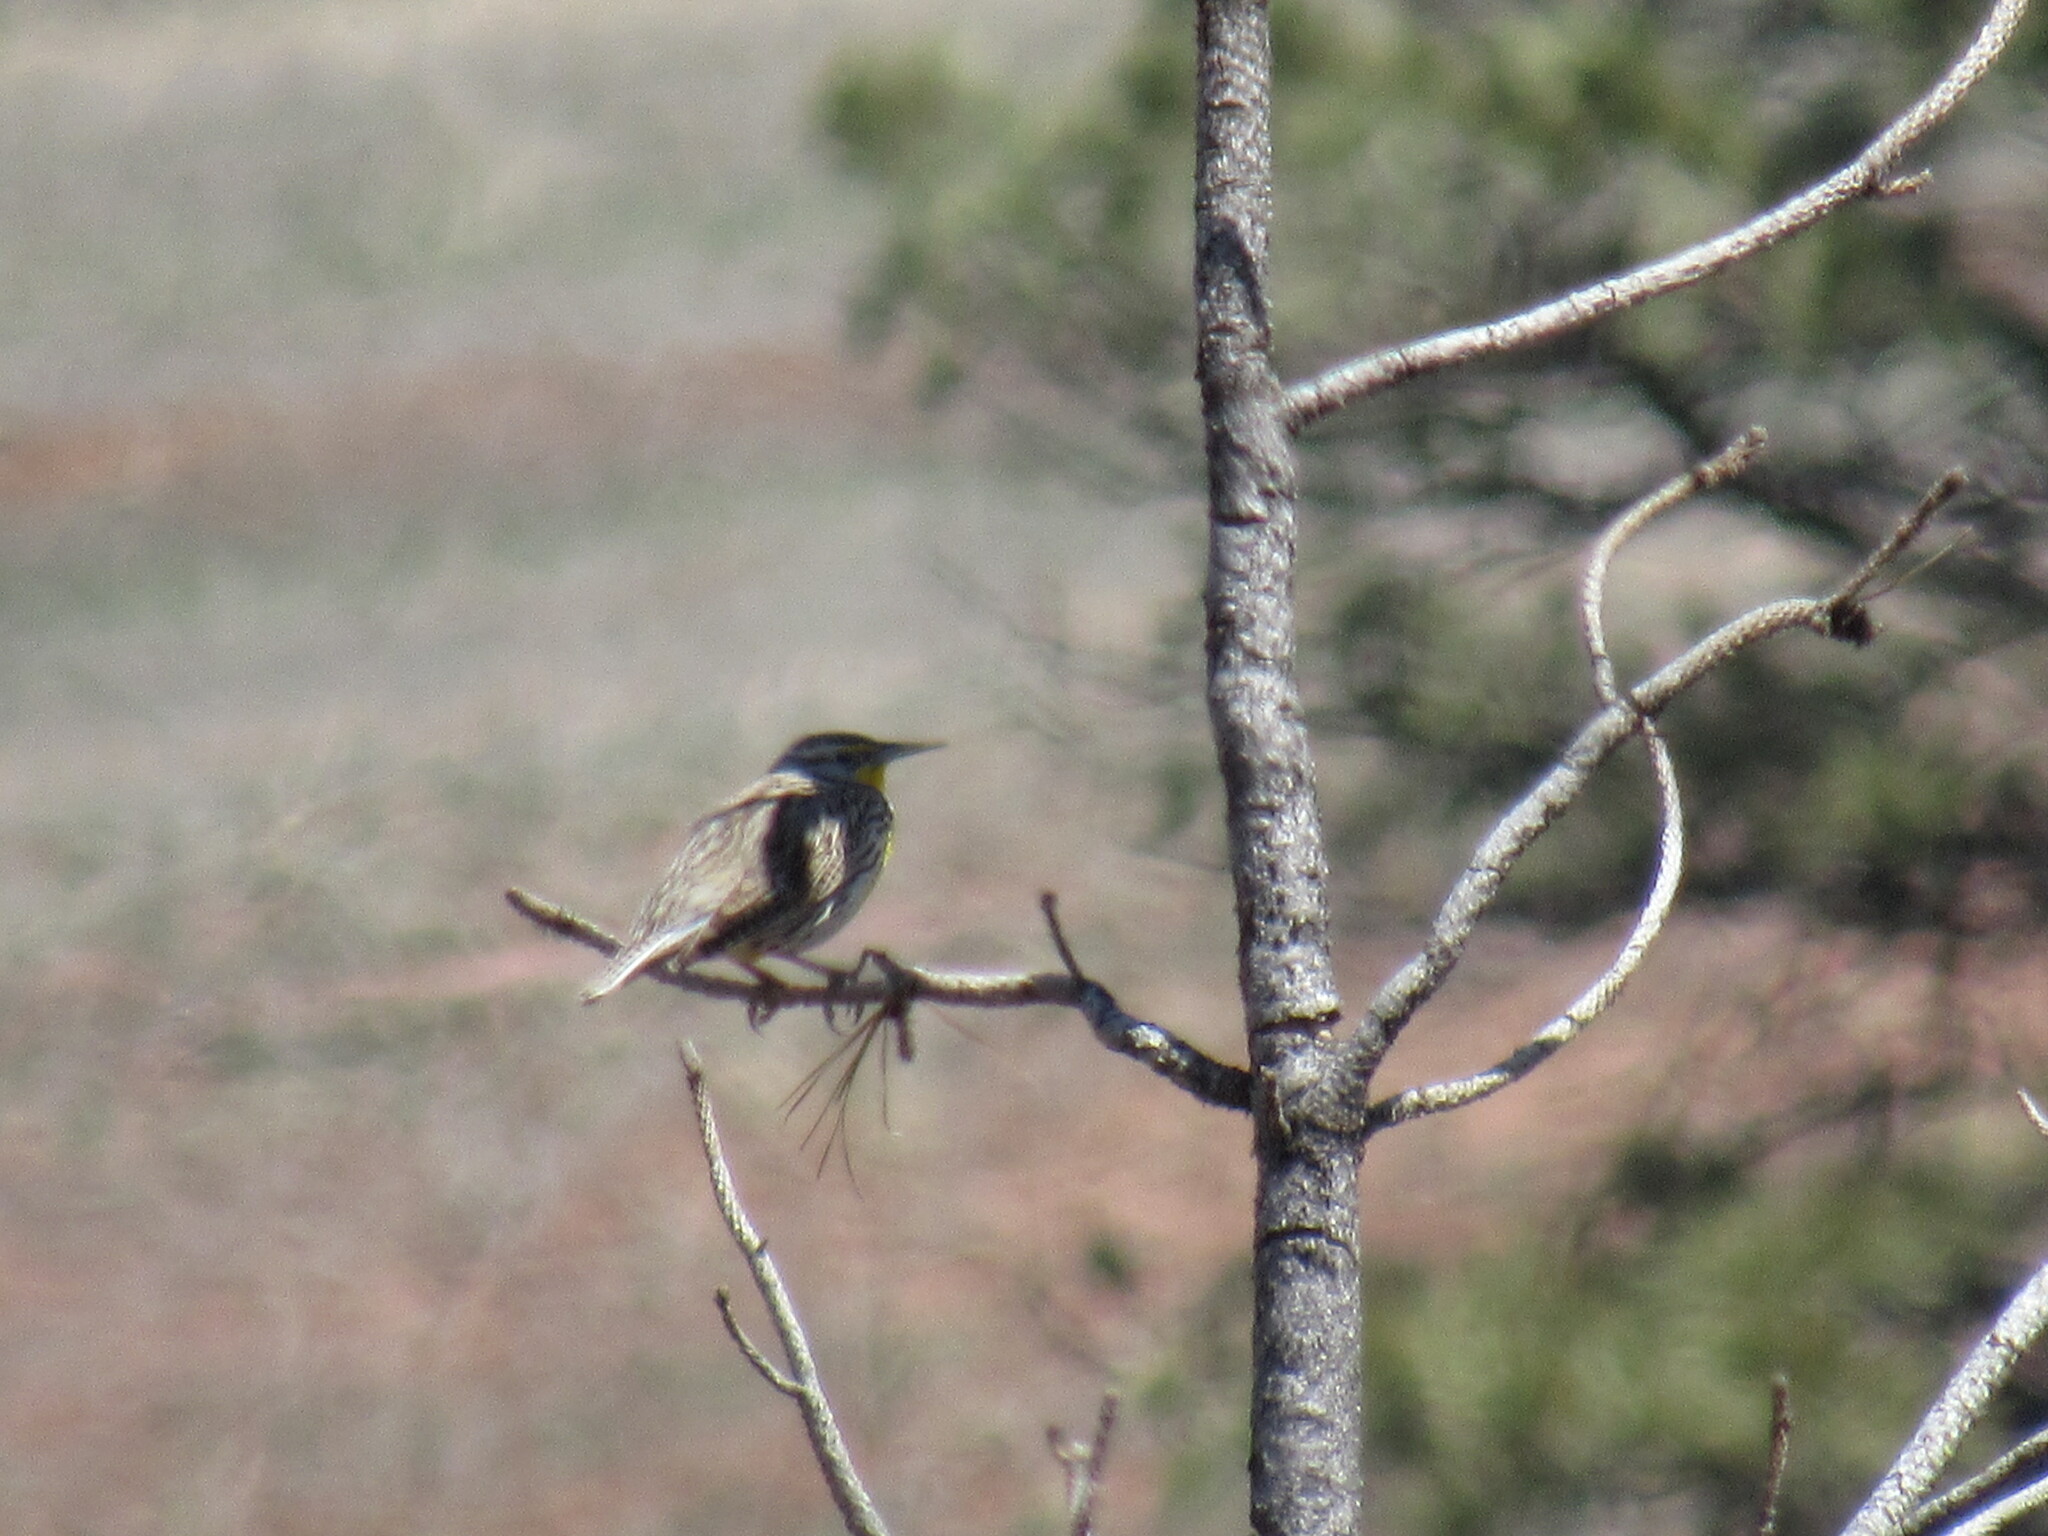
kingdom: Animalia
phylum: Chordata
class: Aves
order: Passeriformes
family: Icteridae
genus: Sturnella
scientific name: Sturnella neglecta
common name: Western meadowlark
